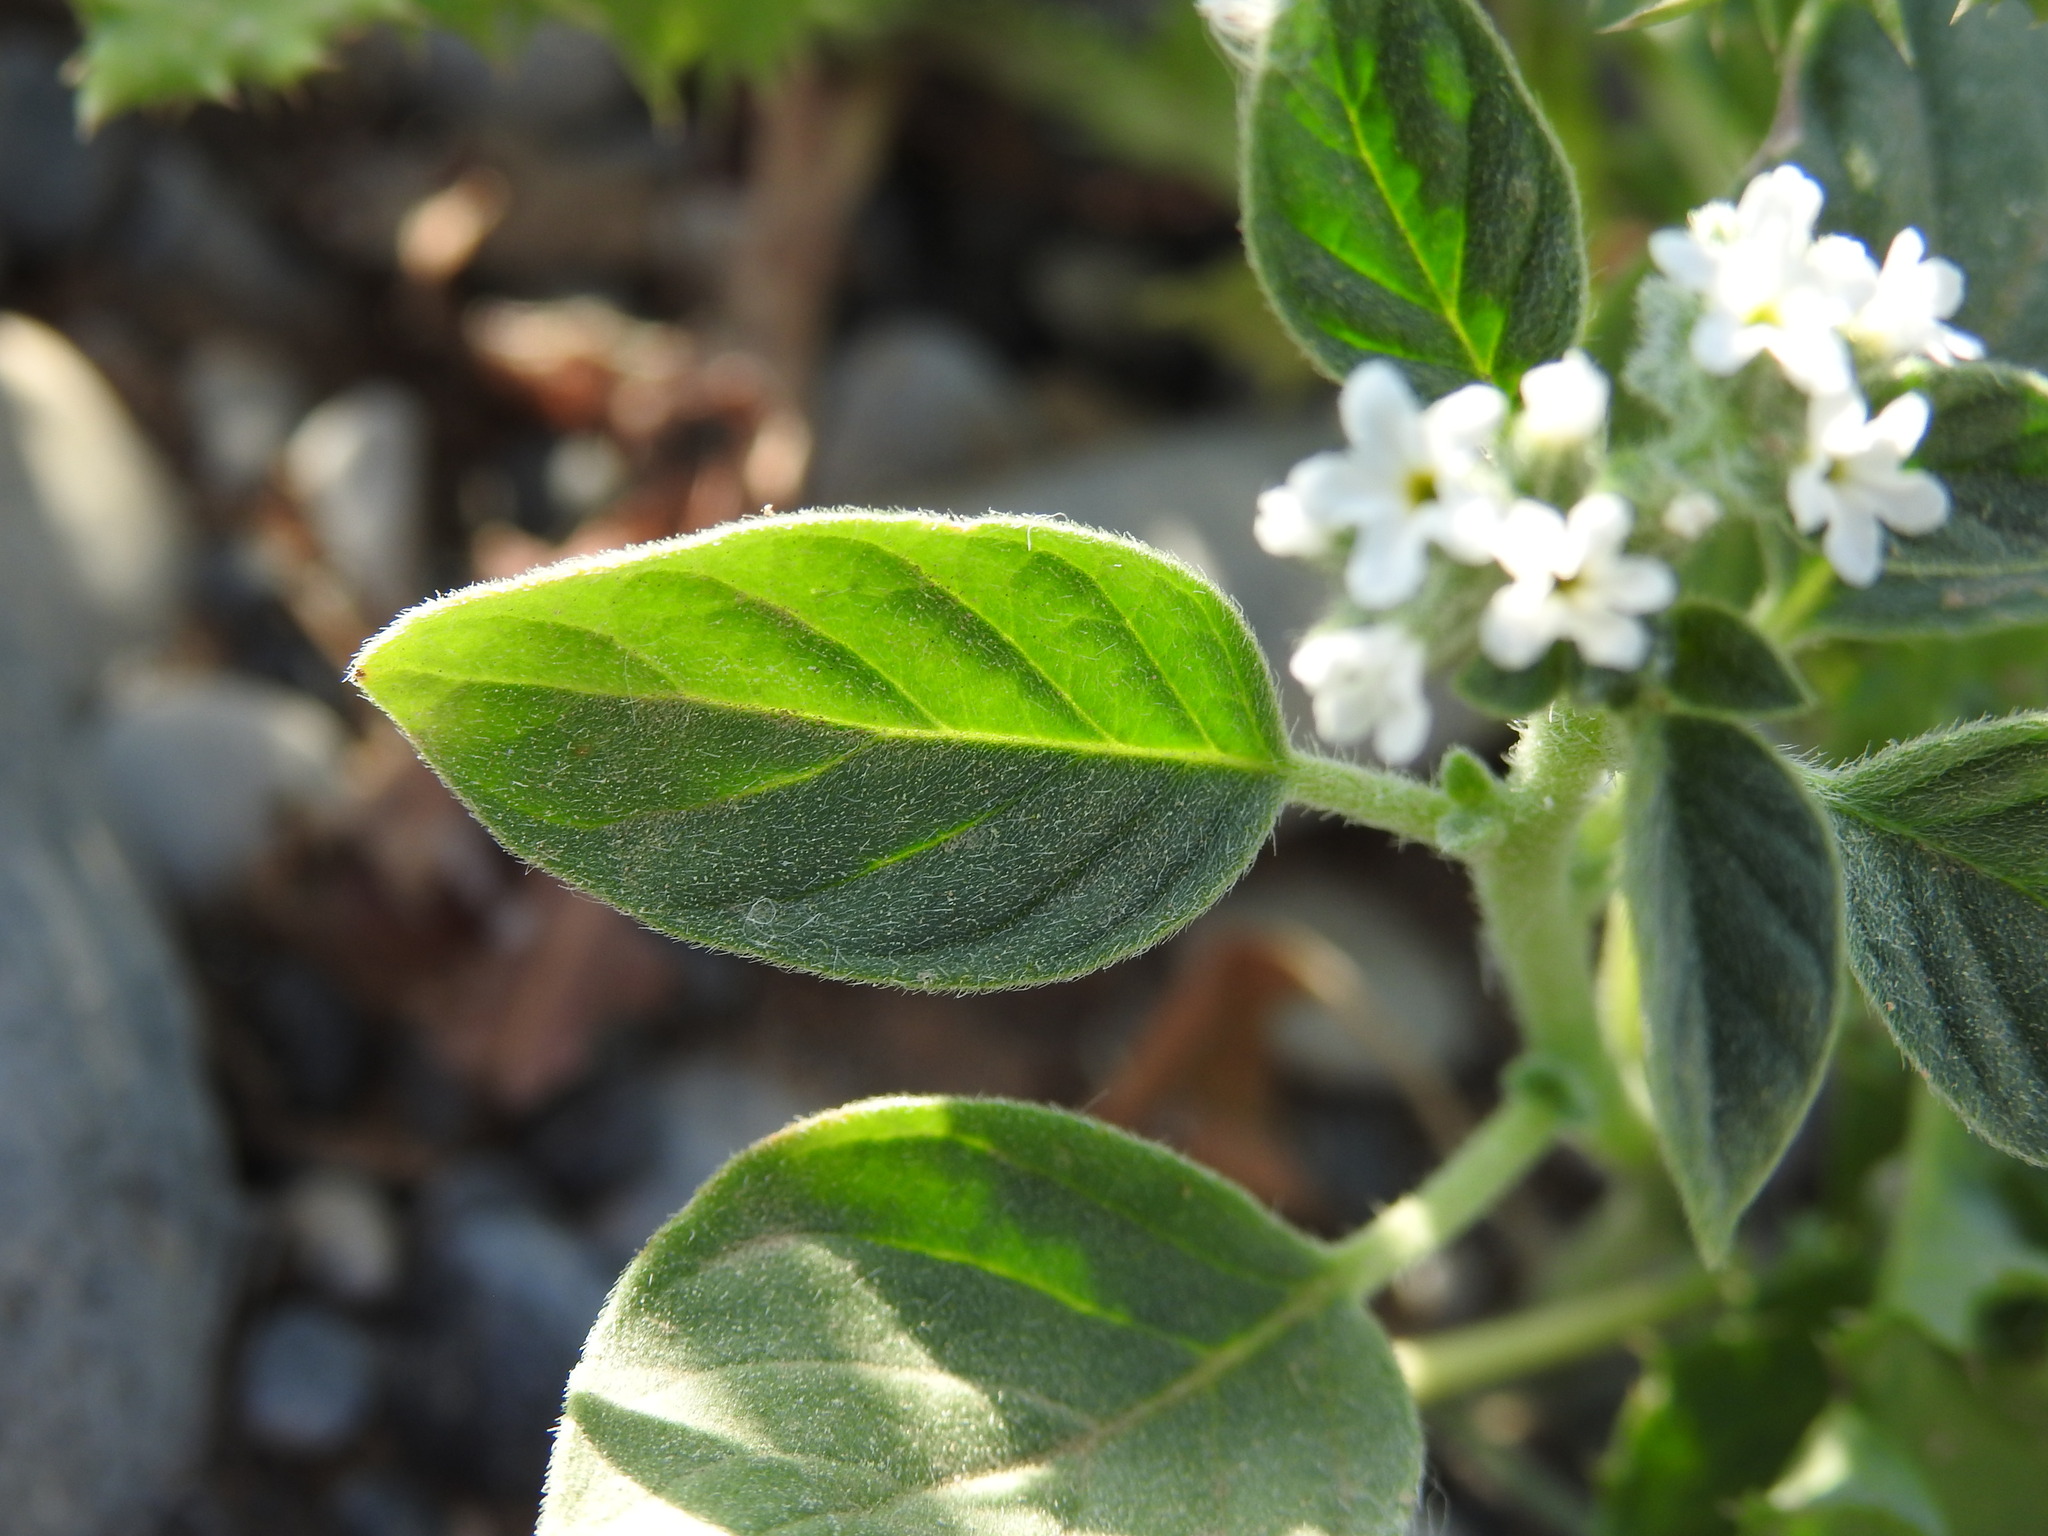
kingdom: Plantae
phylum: Tracheophyta
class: Magnoliopsida
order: Boraginales
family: Heliotropiaceae
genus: Heliotropium
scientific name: Heliotropium europaeum
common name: European heliotrope
